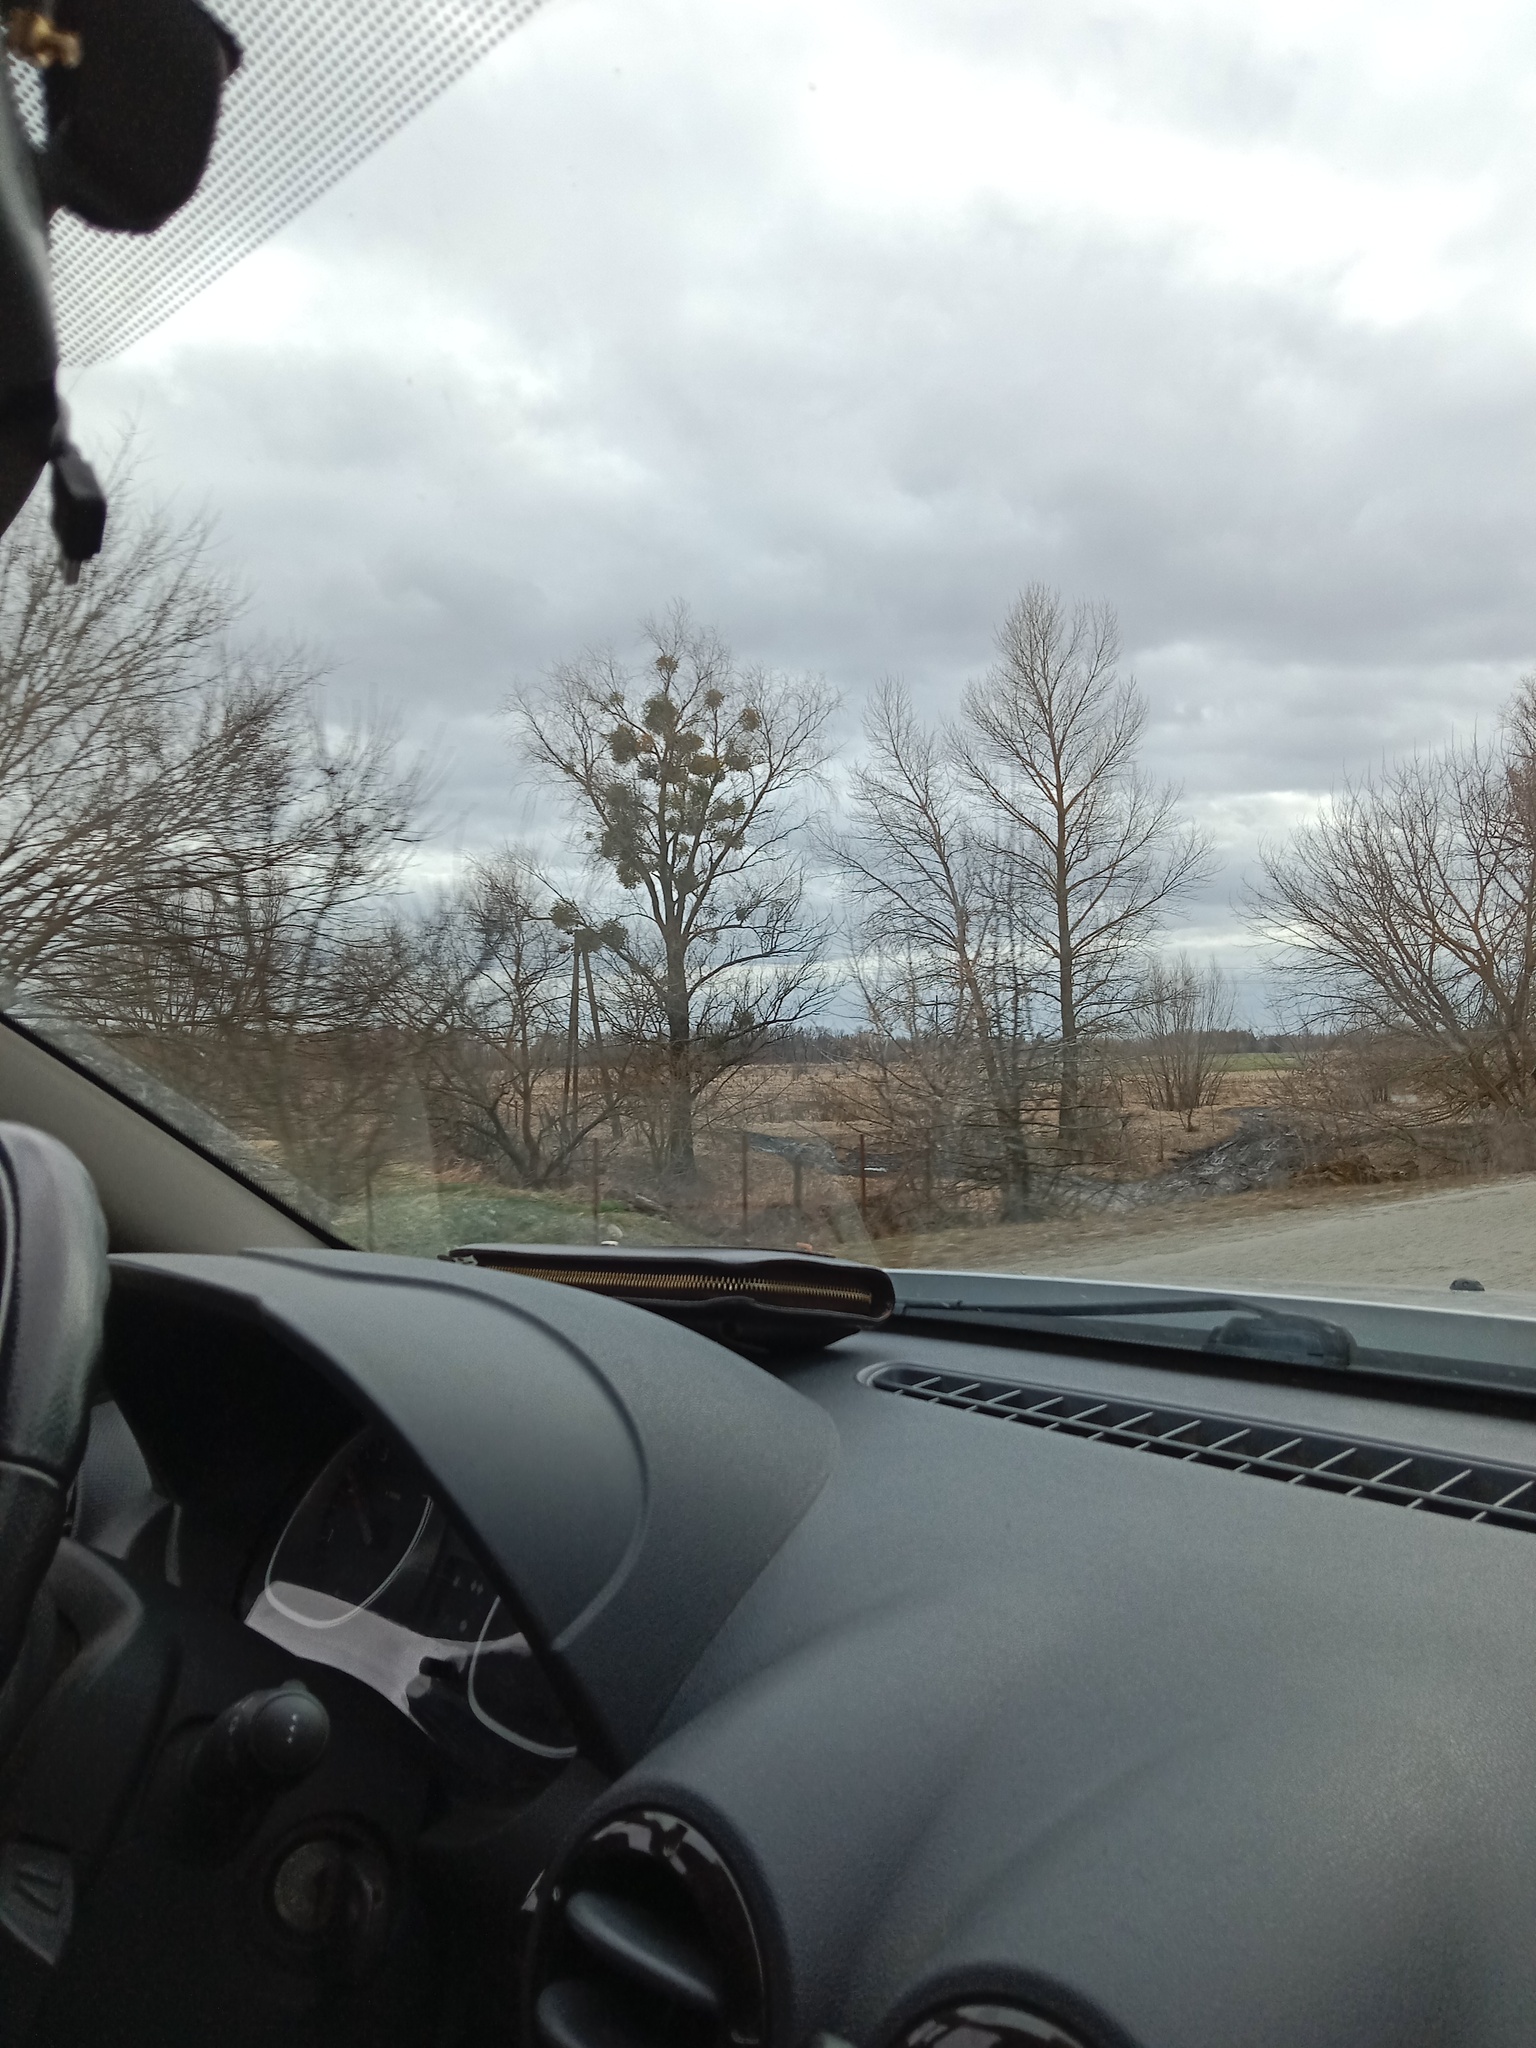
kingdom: Plantae
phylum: Tracheophyta
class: Magnoliopsida
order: Santalales
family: Viscaceae
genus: Viscum
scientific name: Viscum album
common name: Mistletoe
